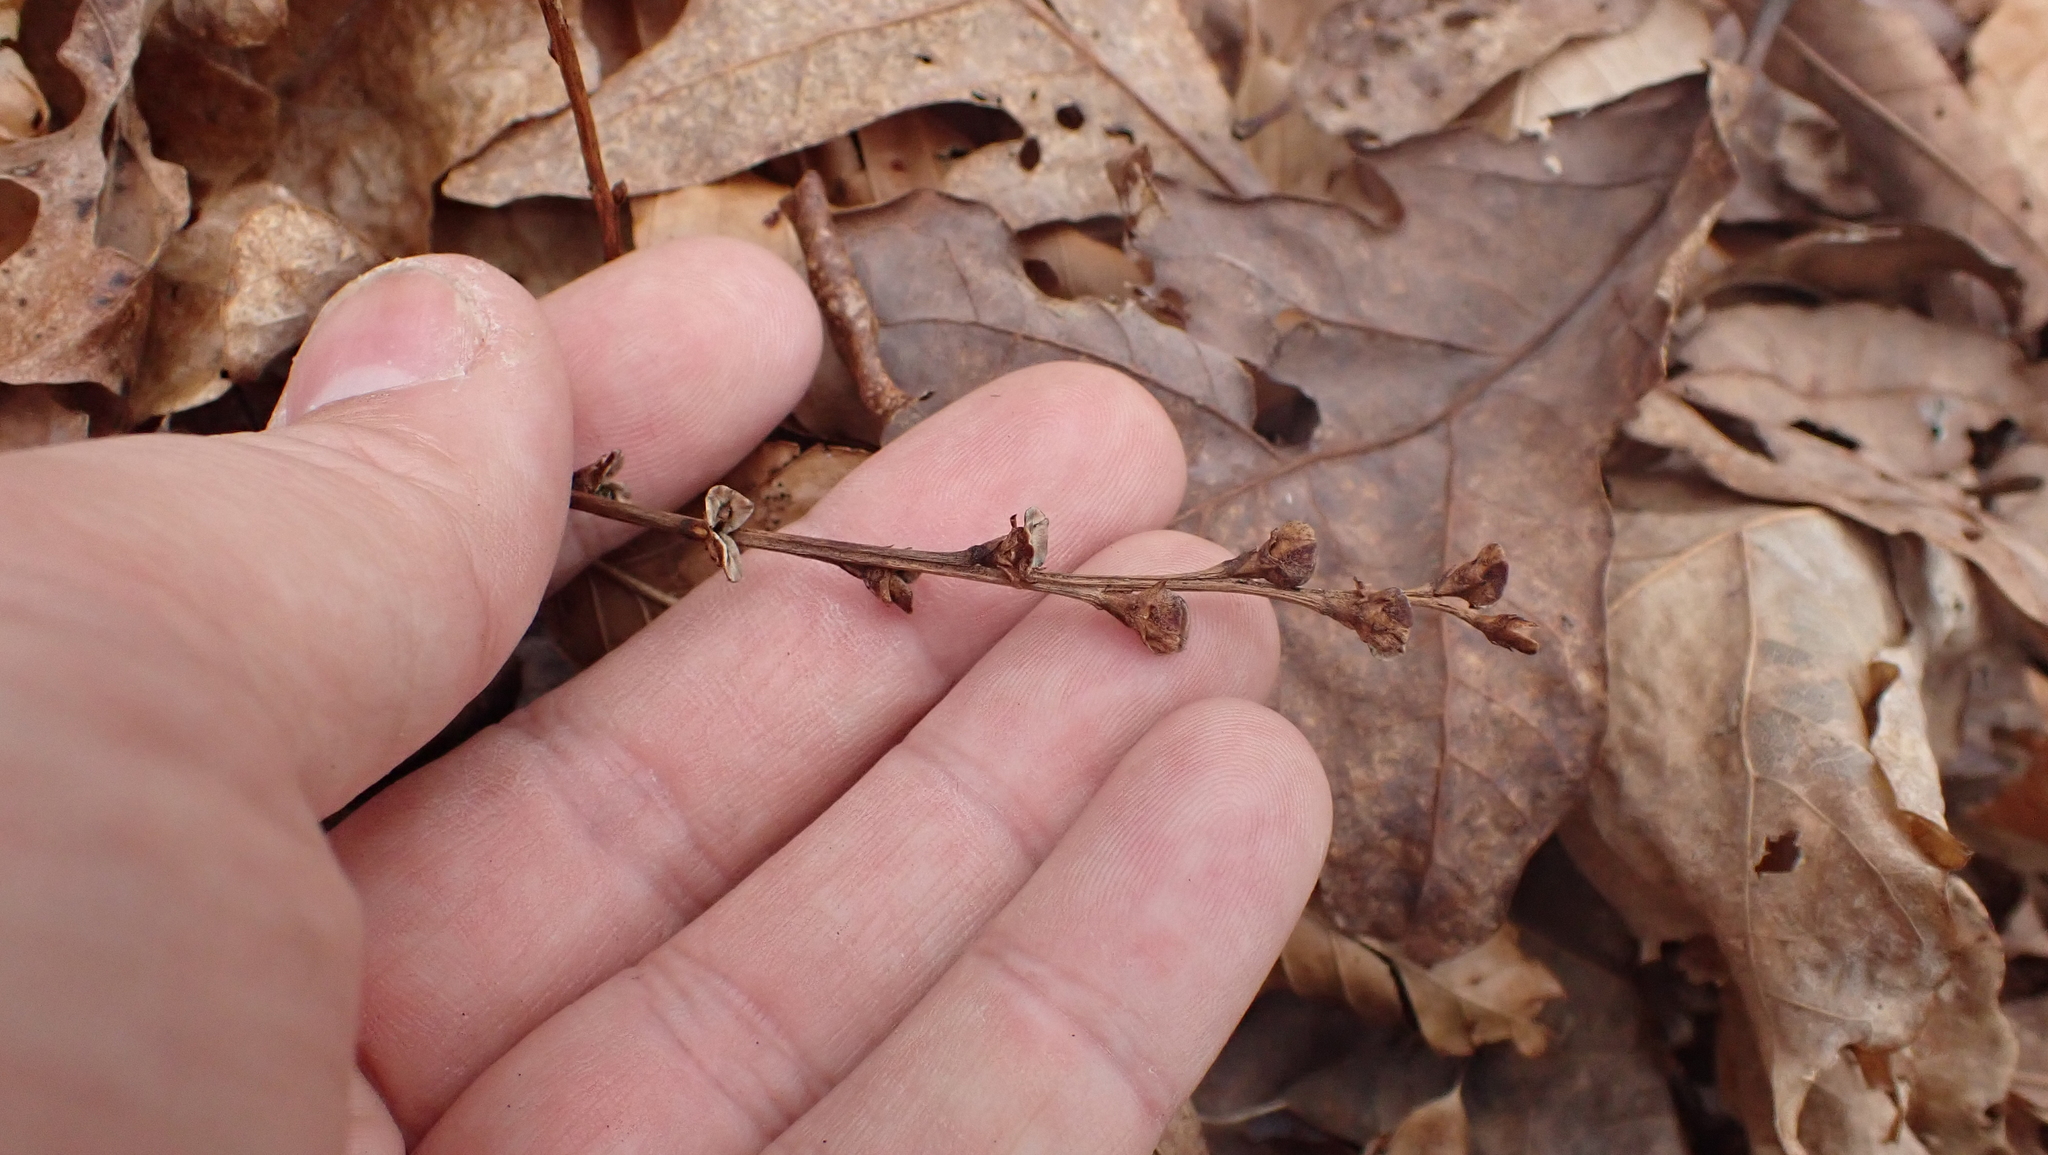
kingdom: Plantae
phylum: Tracheophyta
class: Magnoliopsida
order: Lamiales
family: Orobanchaceae
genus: Epifagus
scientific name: Epifagus virginiana
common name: Beechdrops
